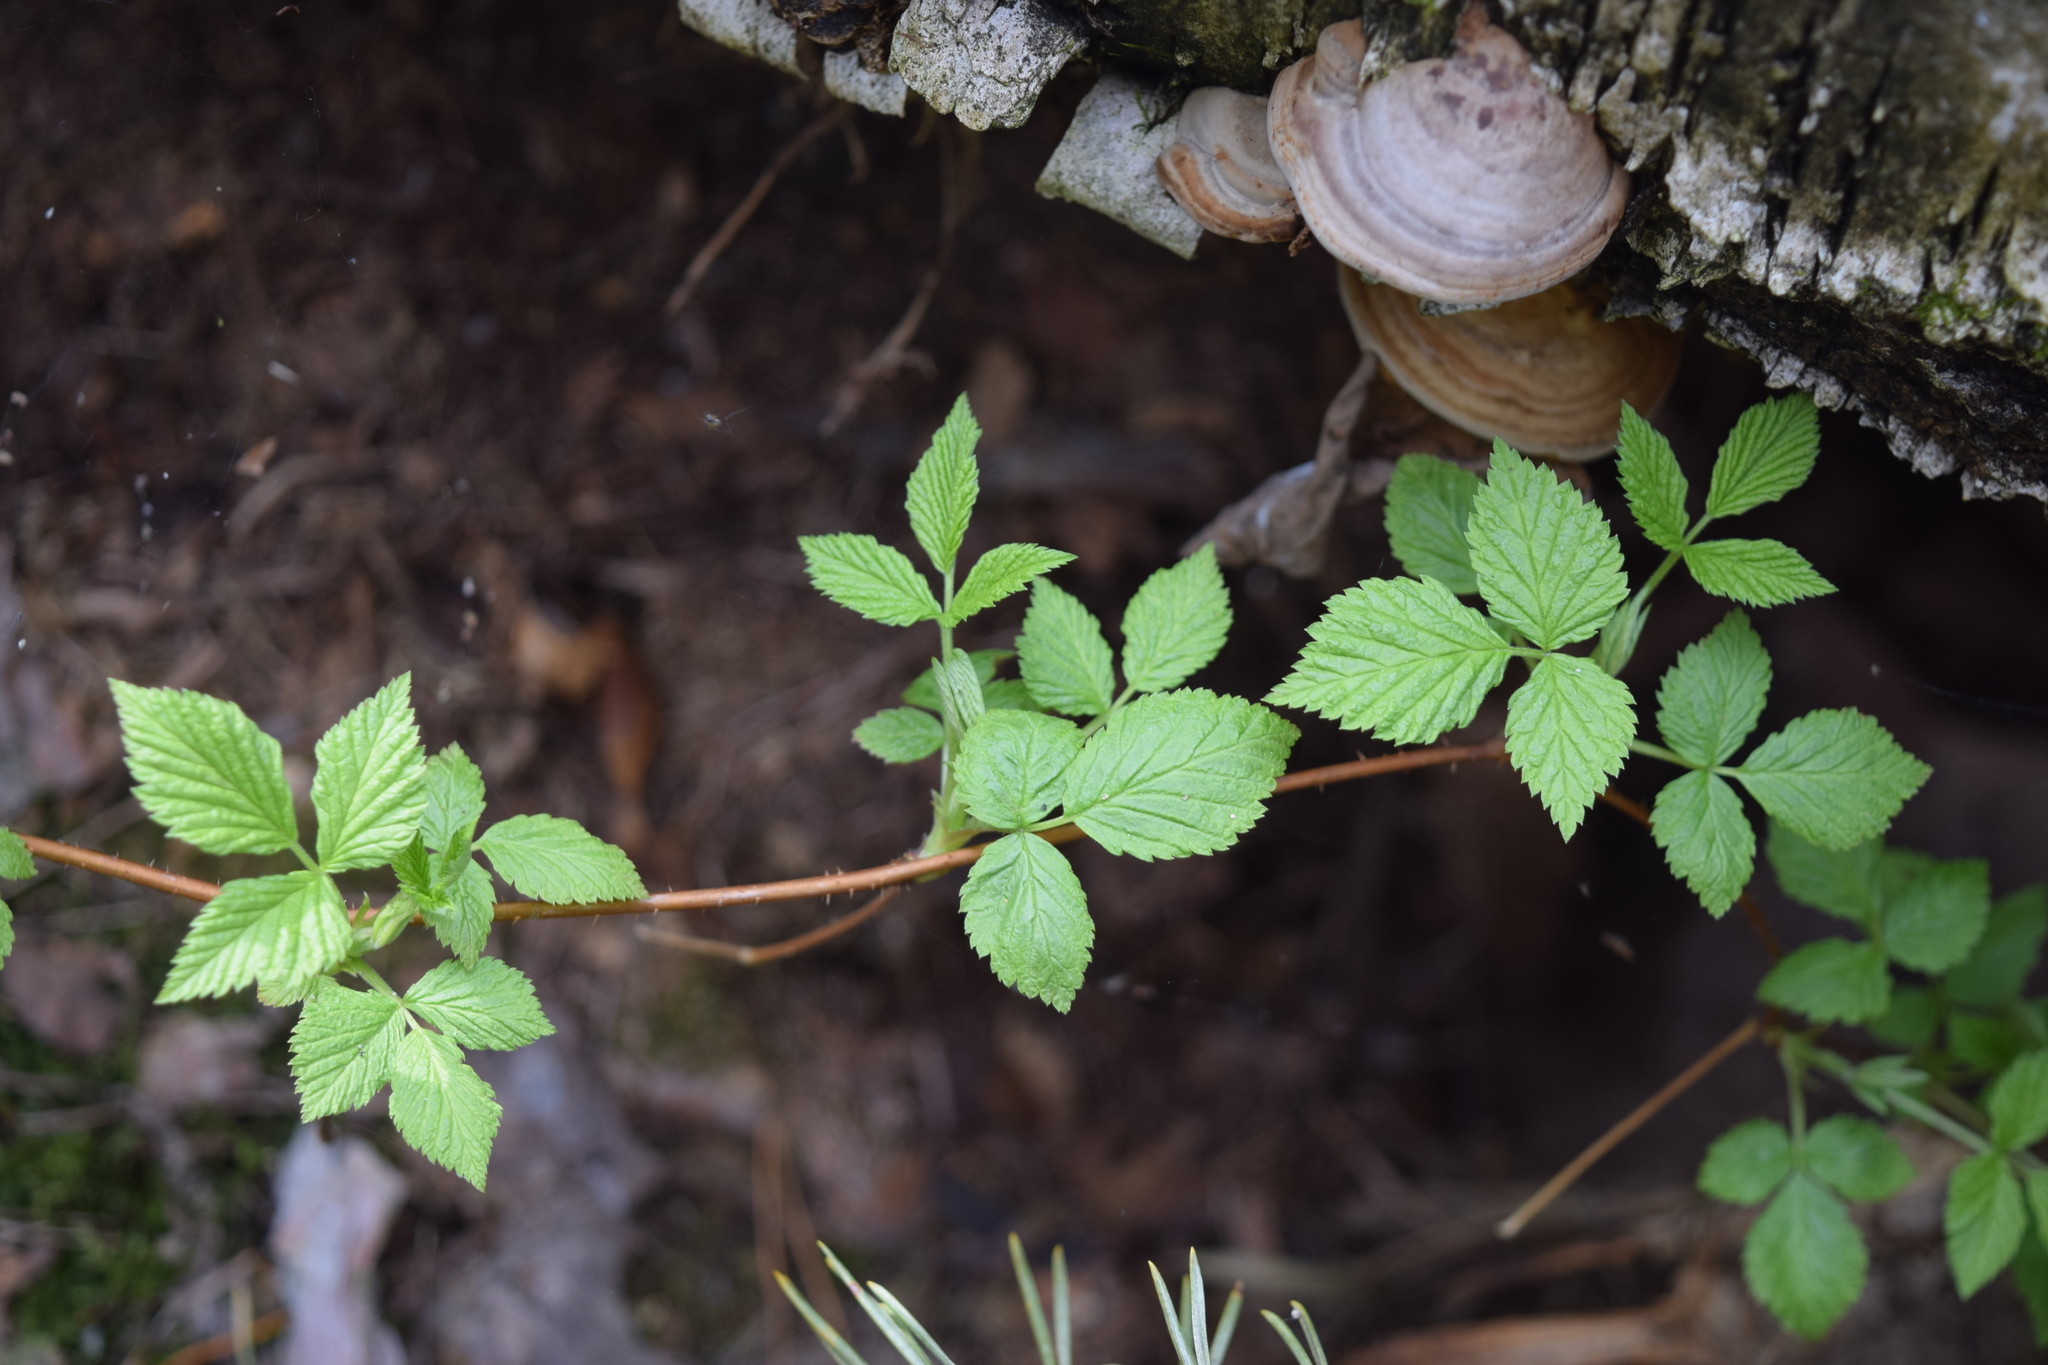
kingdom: Plantae
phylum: Tracheophyta
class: Magnoliopsida
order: Rosales
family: Rosaceae
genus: Rubus
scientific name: Rubus idaeus
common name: Raspberry
